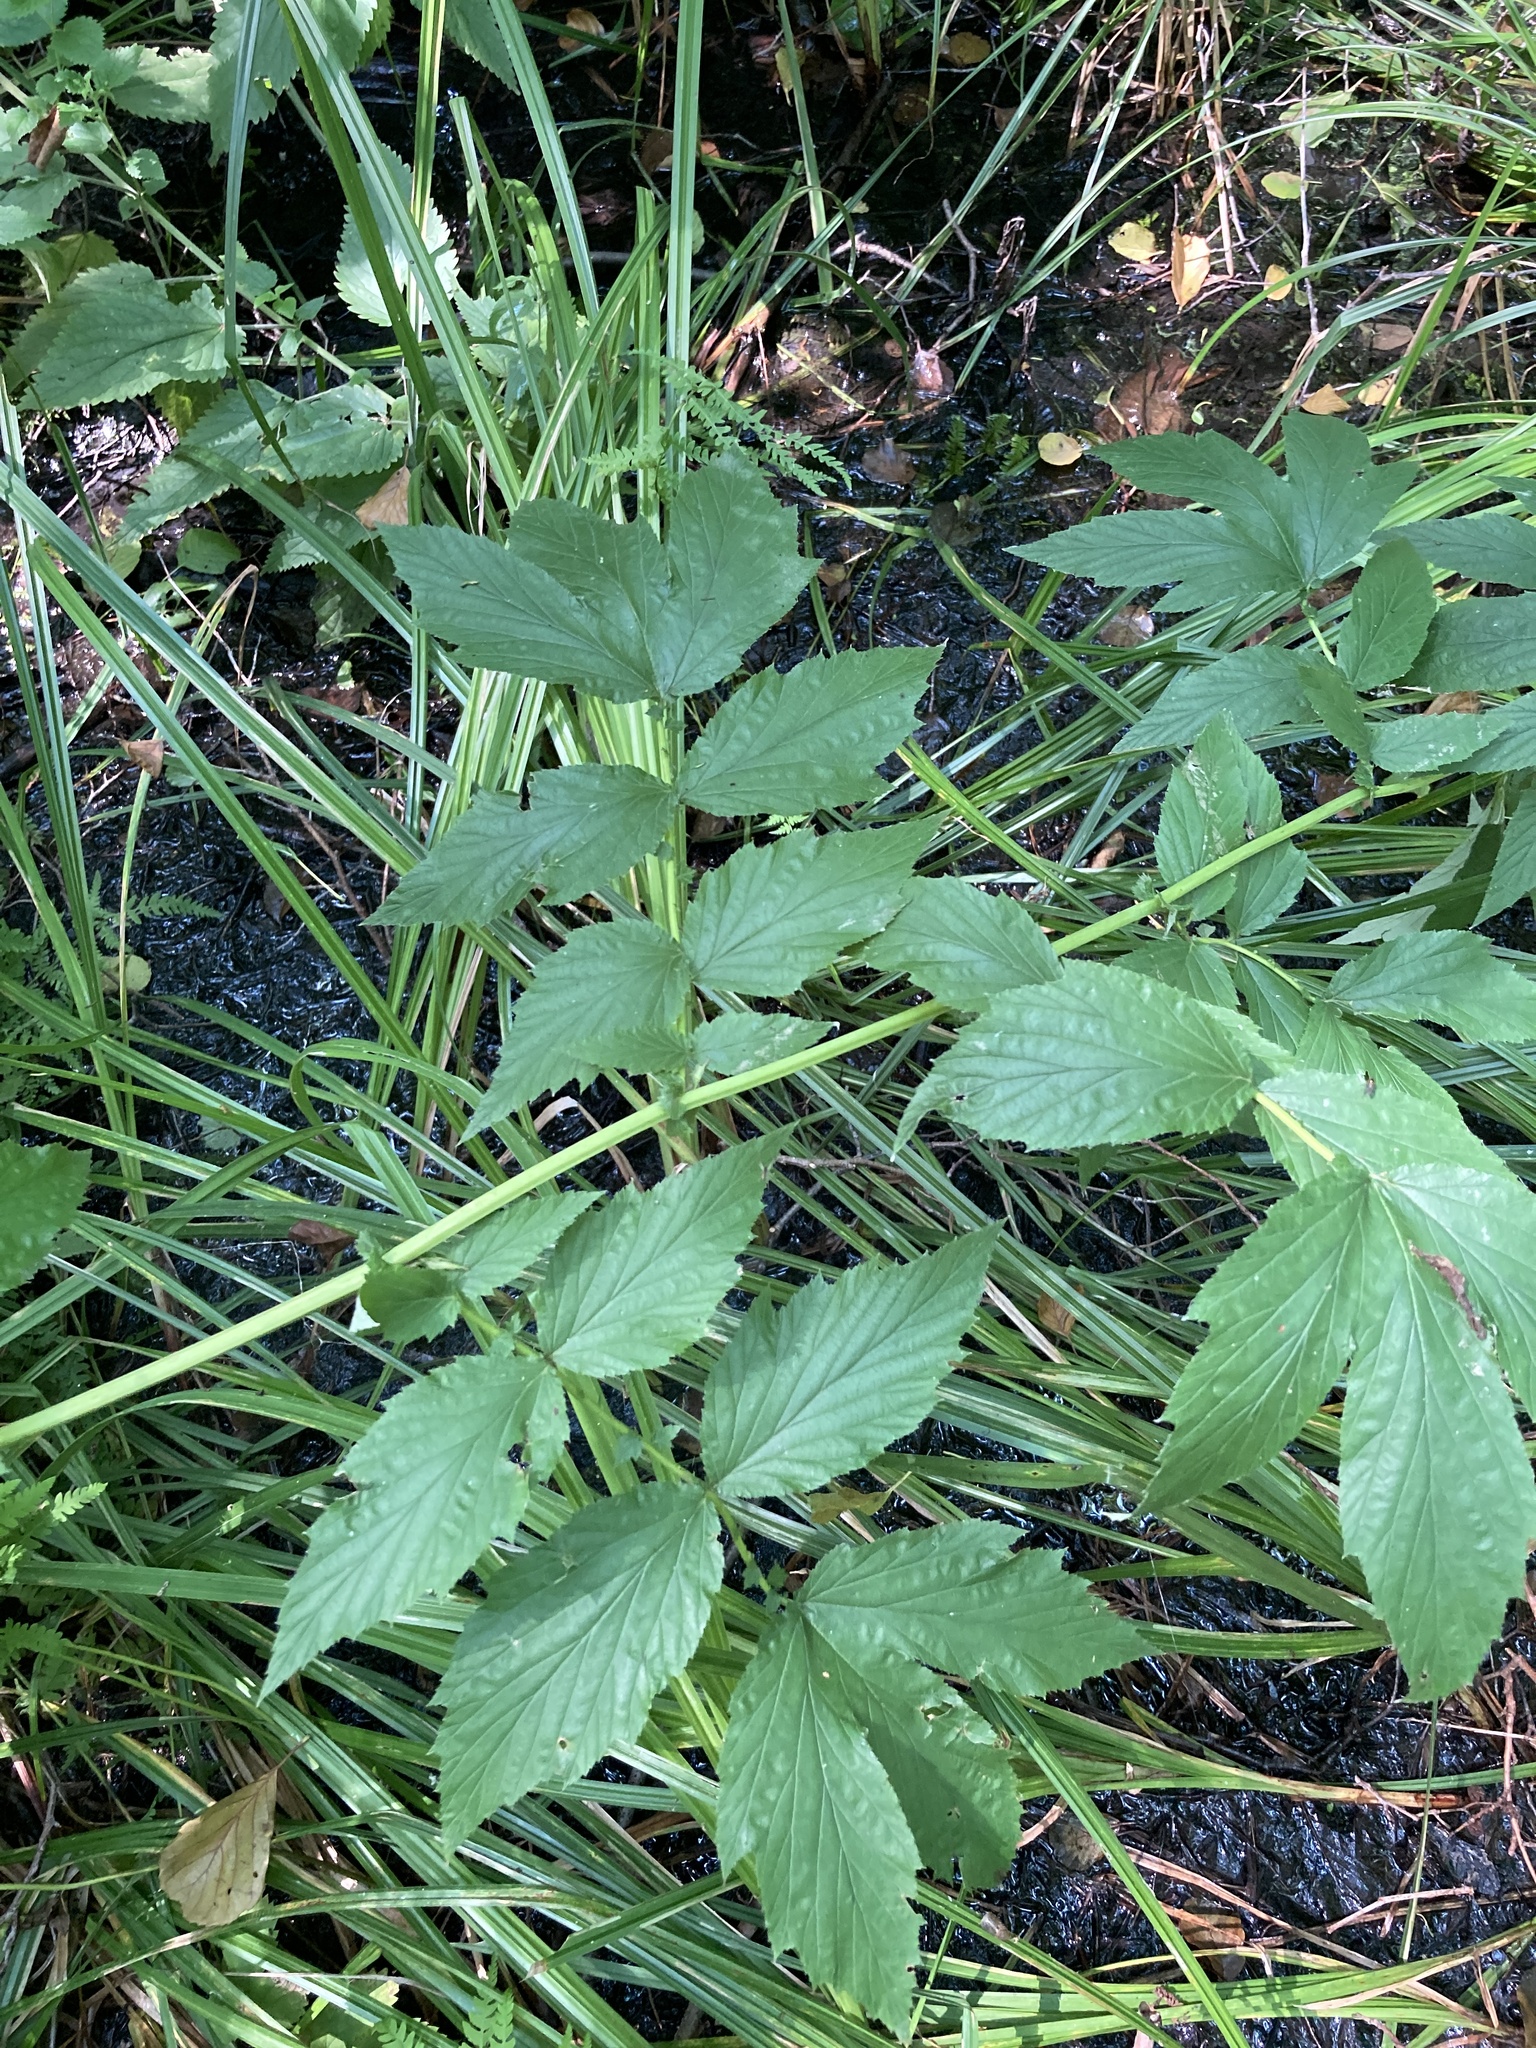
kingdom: Plantae
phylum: Tracheophyta
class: Magnoliopsida
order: Rosales
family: Rosaceae
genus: Filipendula
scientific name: Filipendula ulmaria
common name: Meadowsweet
